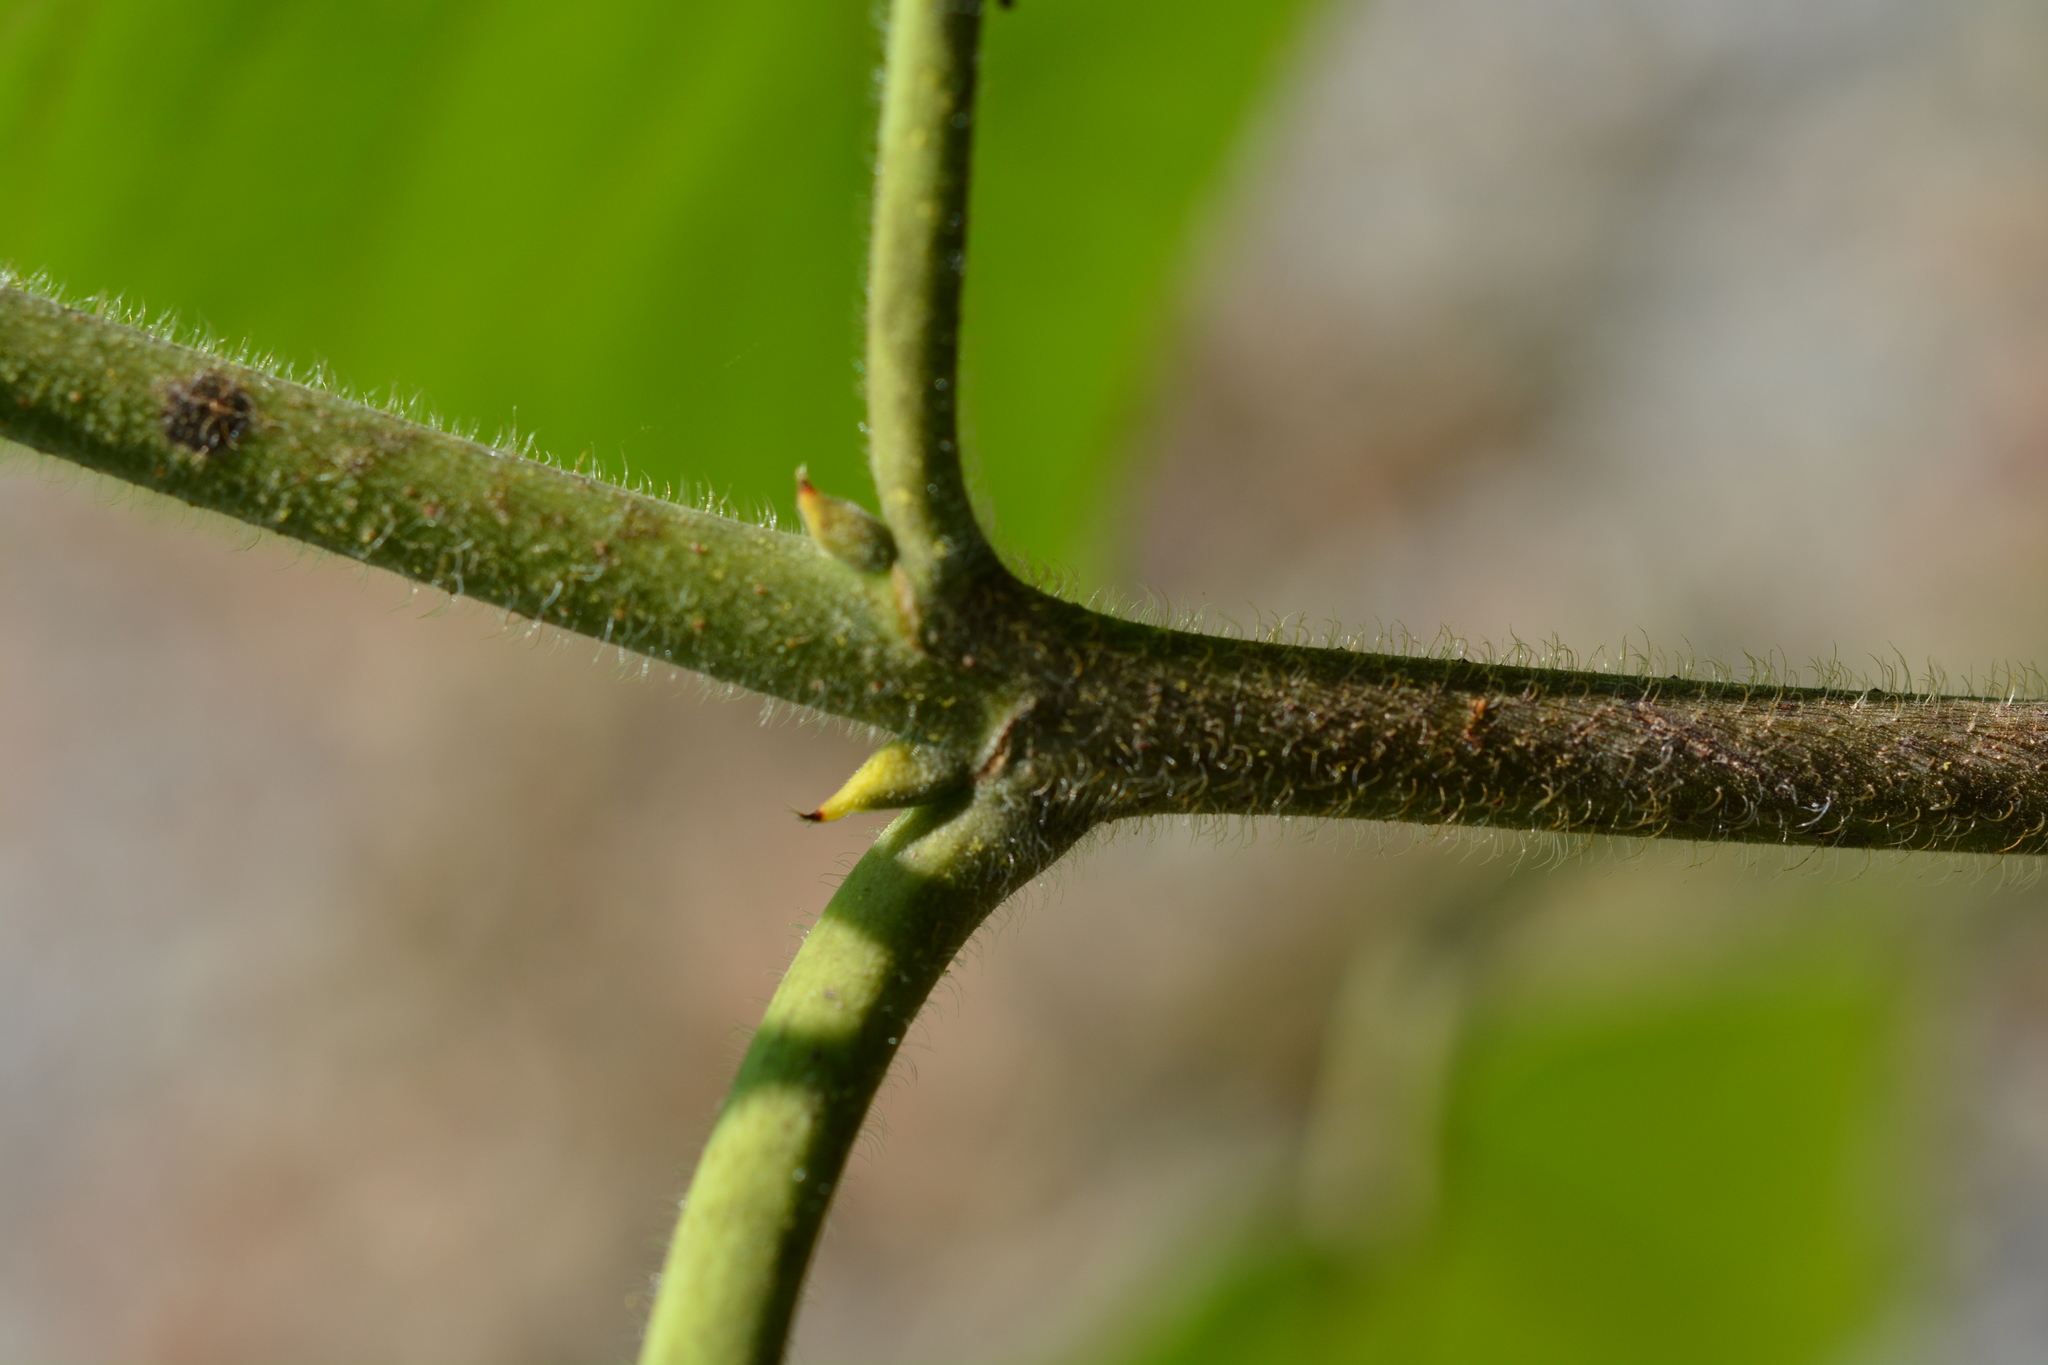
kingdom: Plantae
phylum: Tracheophyta
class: Magnoliopsida
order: Rosales
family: Moraceae
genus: Broussonetia
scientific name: Broussonetia papyrifera
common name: Paper mulberry
